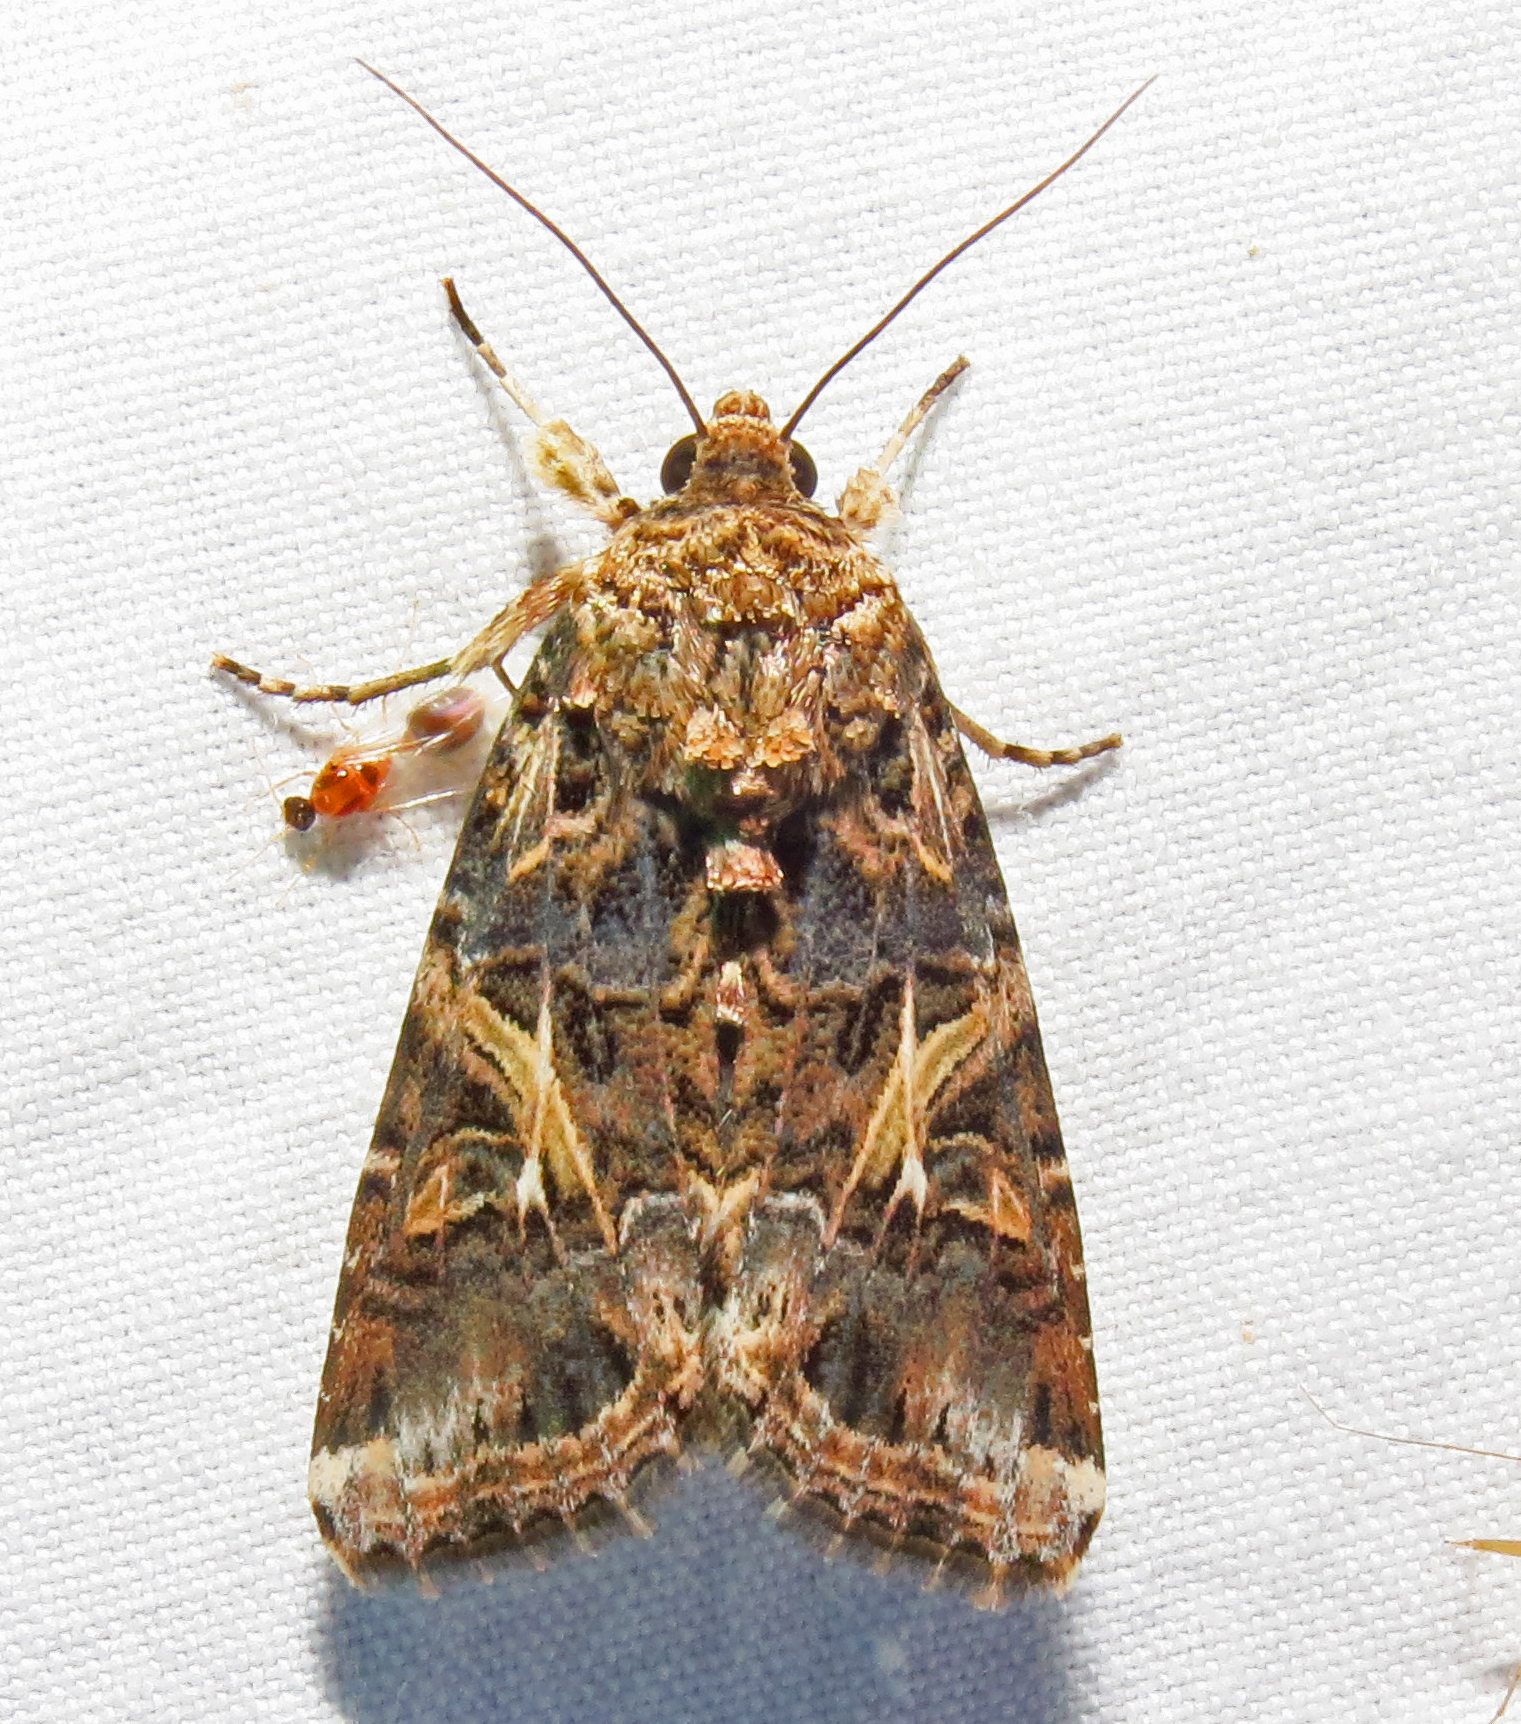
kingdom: Animalia
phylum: Arthropoda
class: Insecta
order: Lepidoptera
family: Noctuidae
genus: Spodoptera
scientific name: Spodoptera ornithogalli
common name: Yellow-striped armyworm
